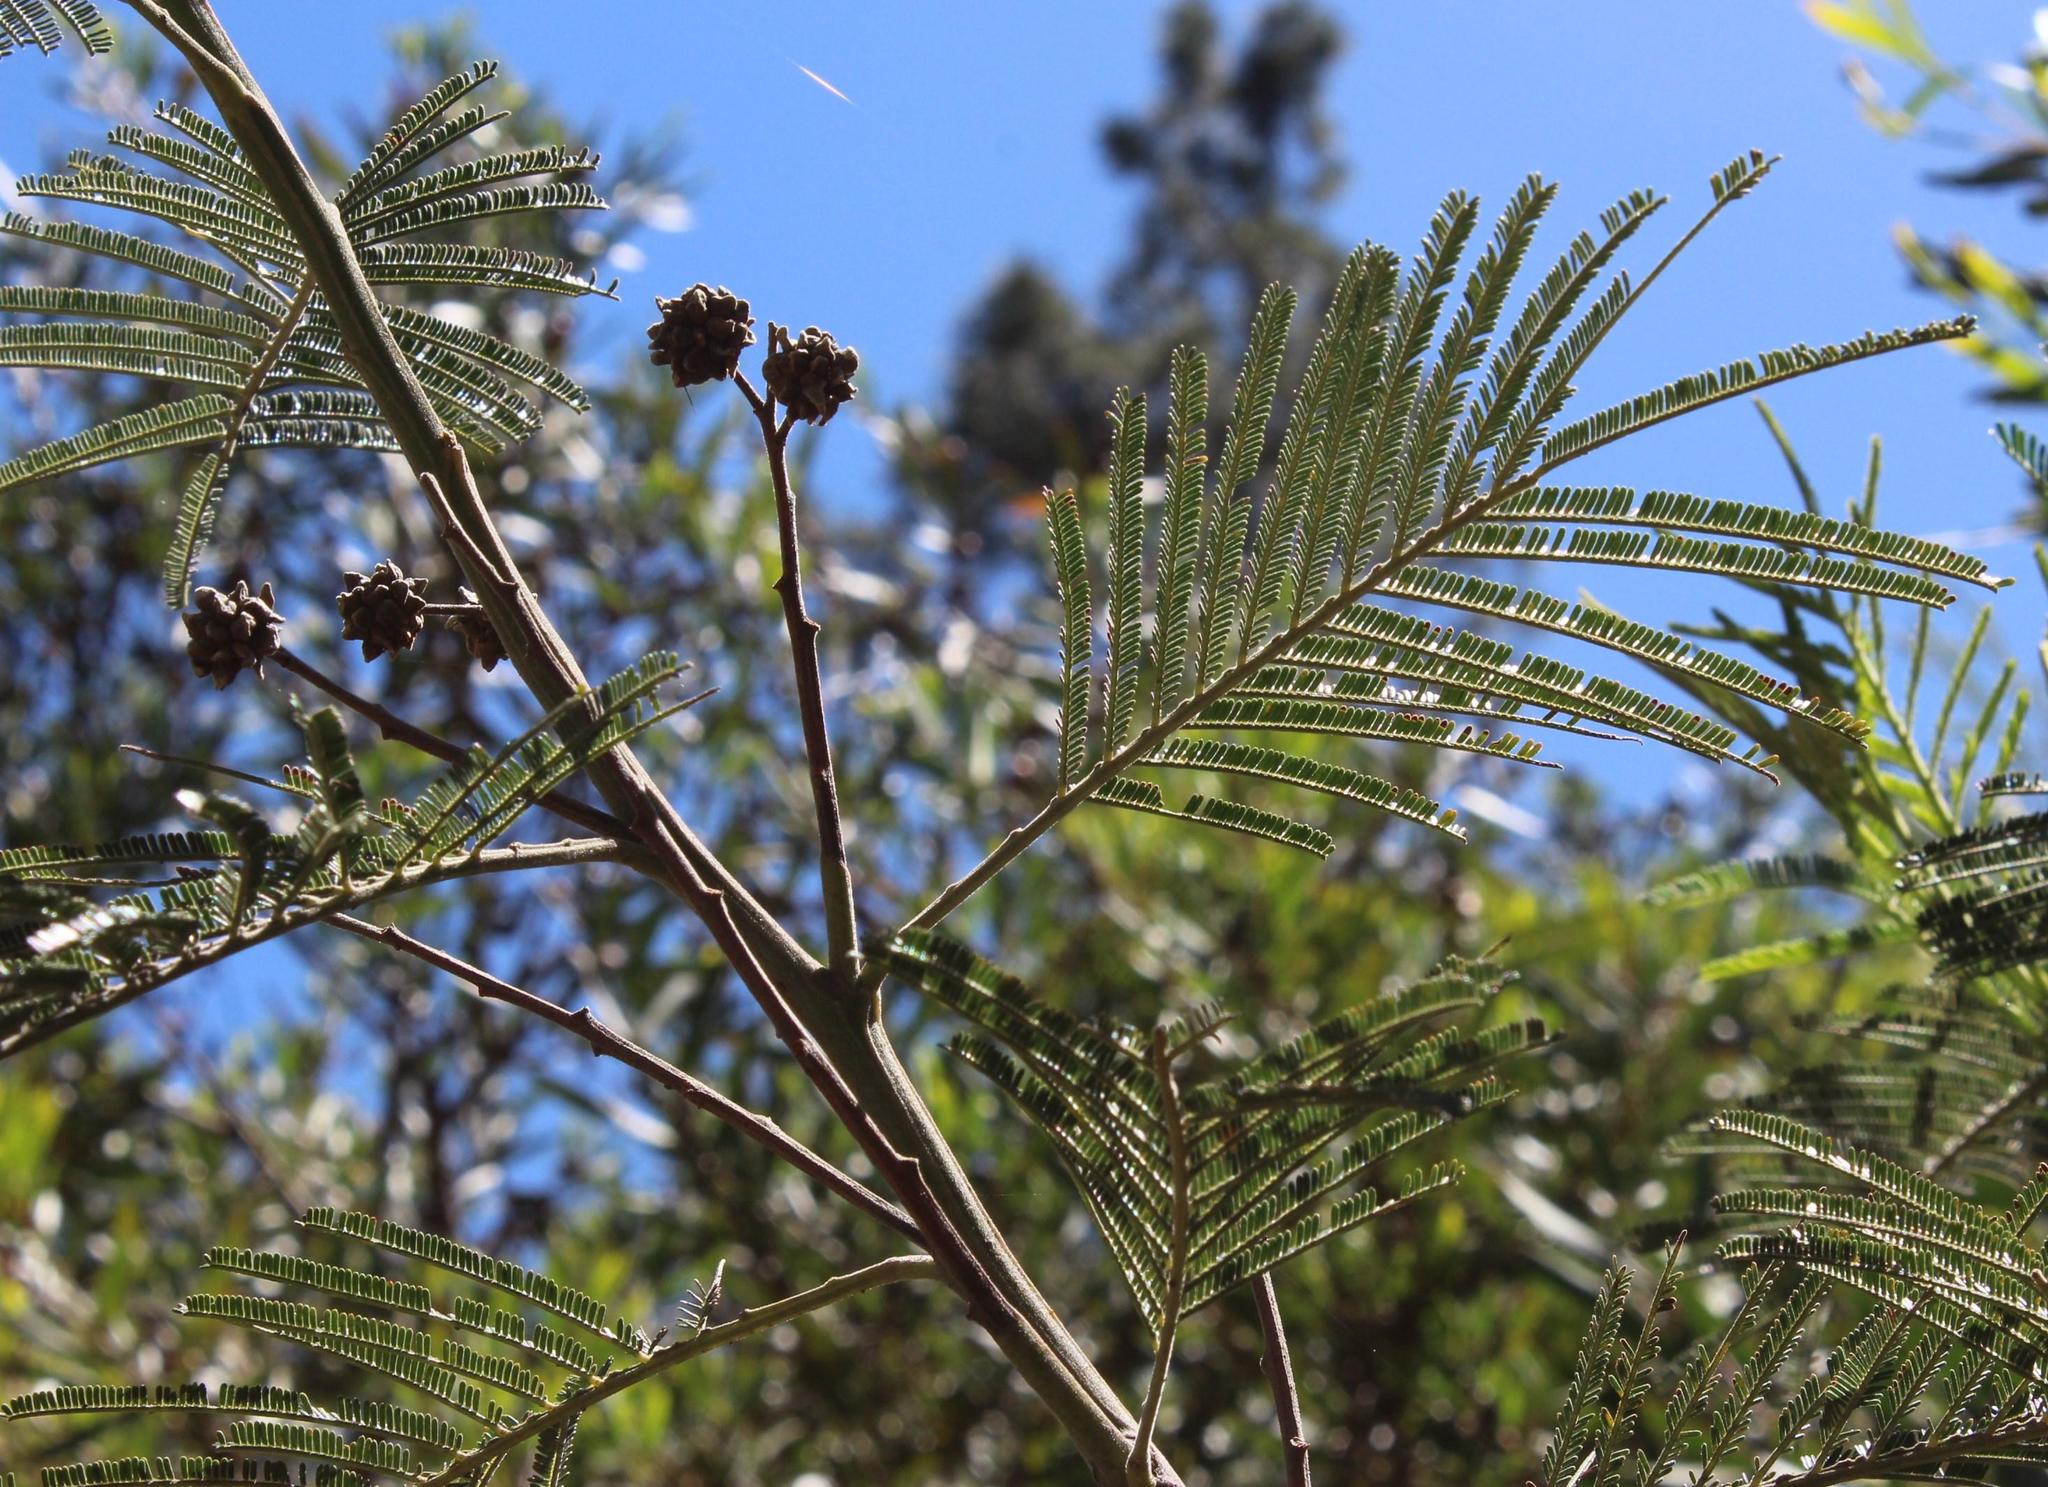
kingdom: Plantae
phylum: Tracheophyta
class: Magnoliopsida
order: Fabales
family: Fabaceae
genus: Acacia
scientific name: Acacia mearnsii
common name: Black wattle
